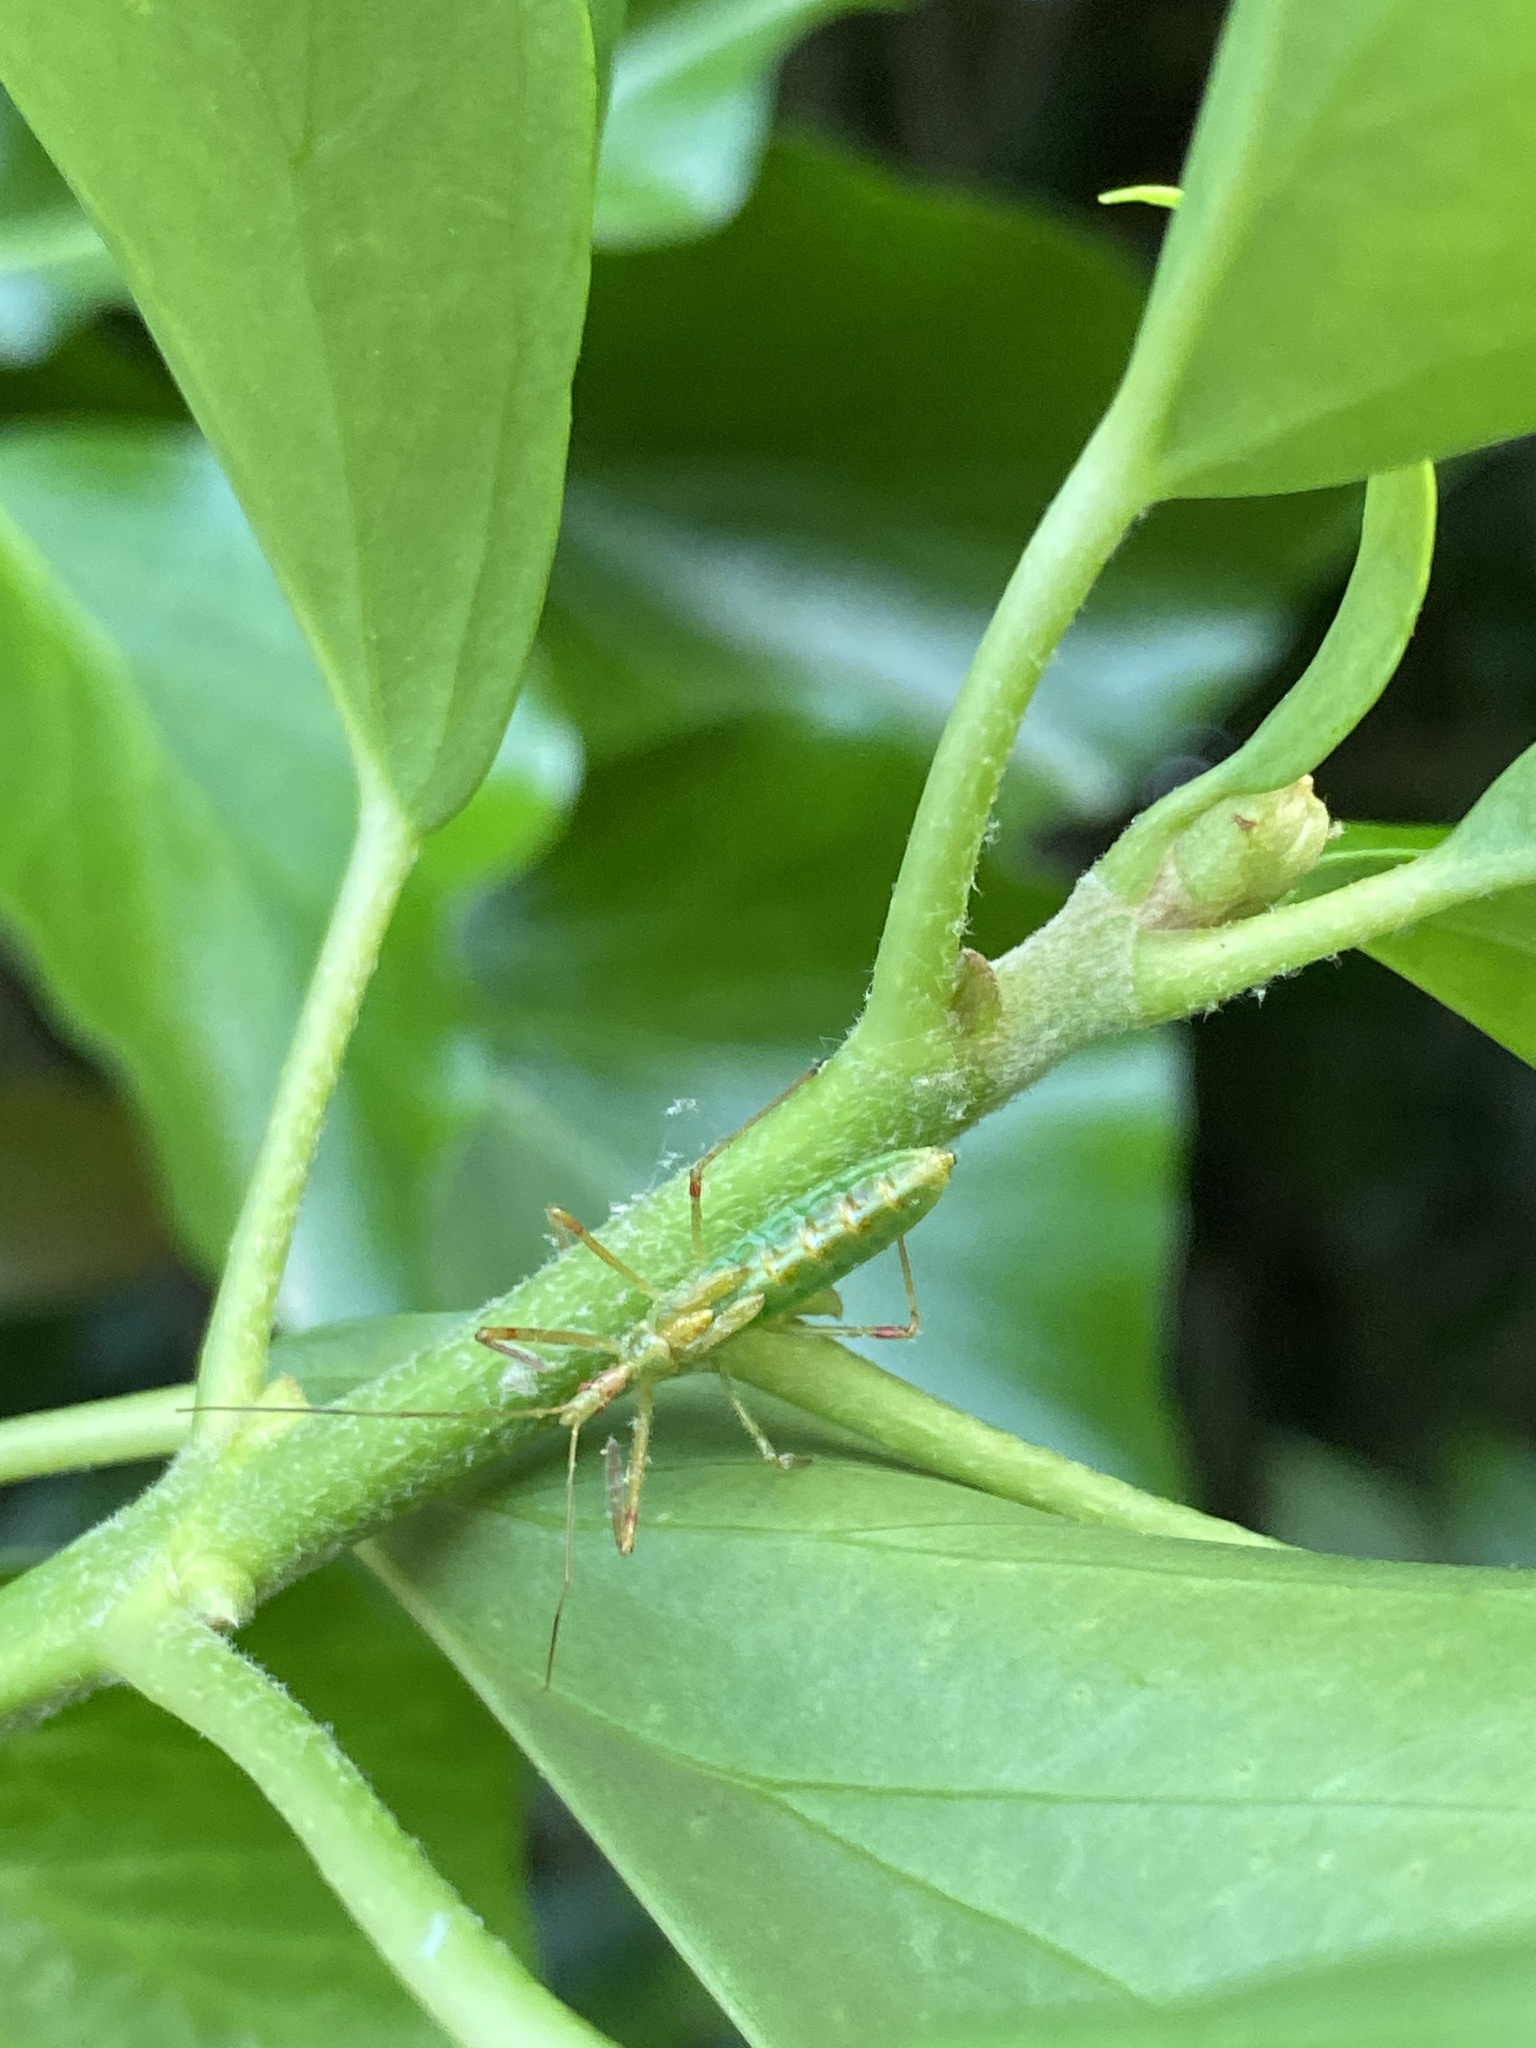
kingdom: Animalia
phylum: Arthropoda
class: Insecta
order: Hemiptera
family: Reduviidae
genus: Zelus
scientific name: Zelus luridus
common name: Pale green assassin bug
